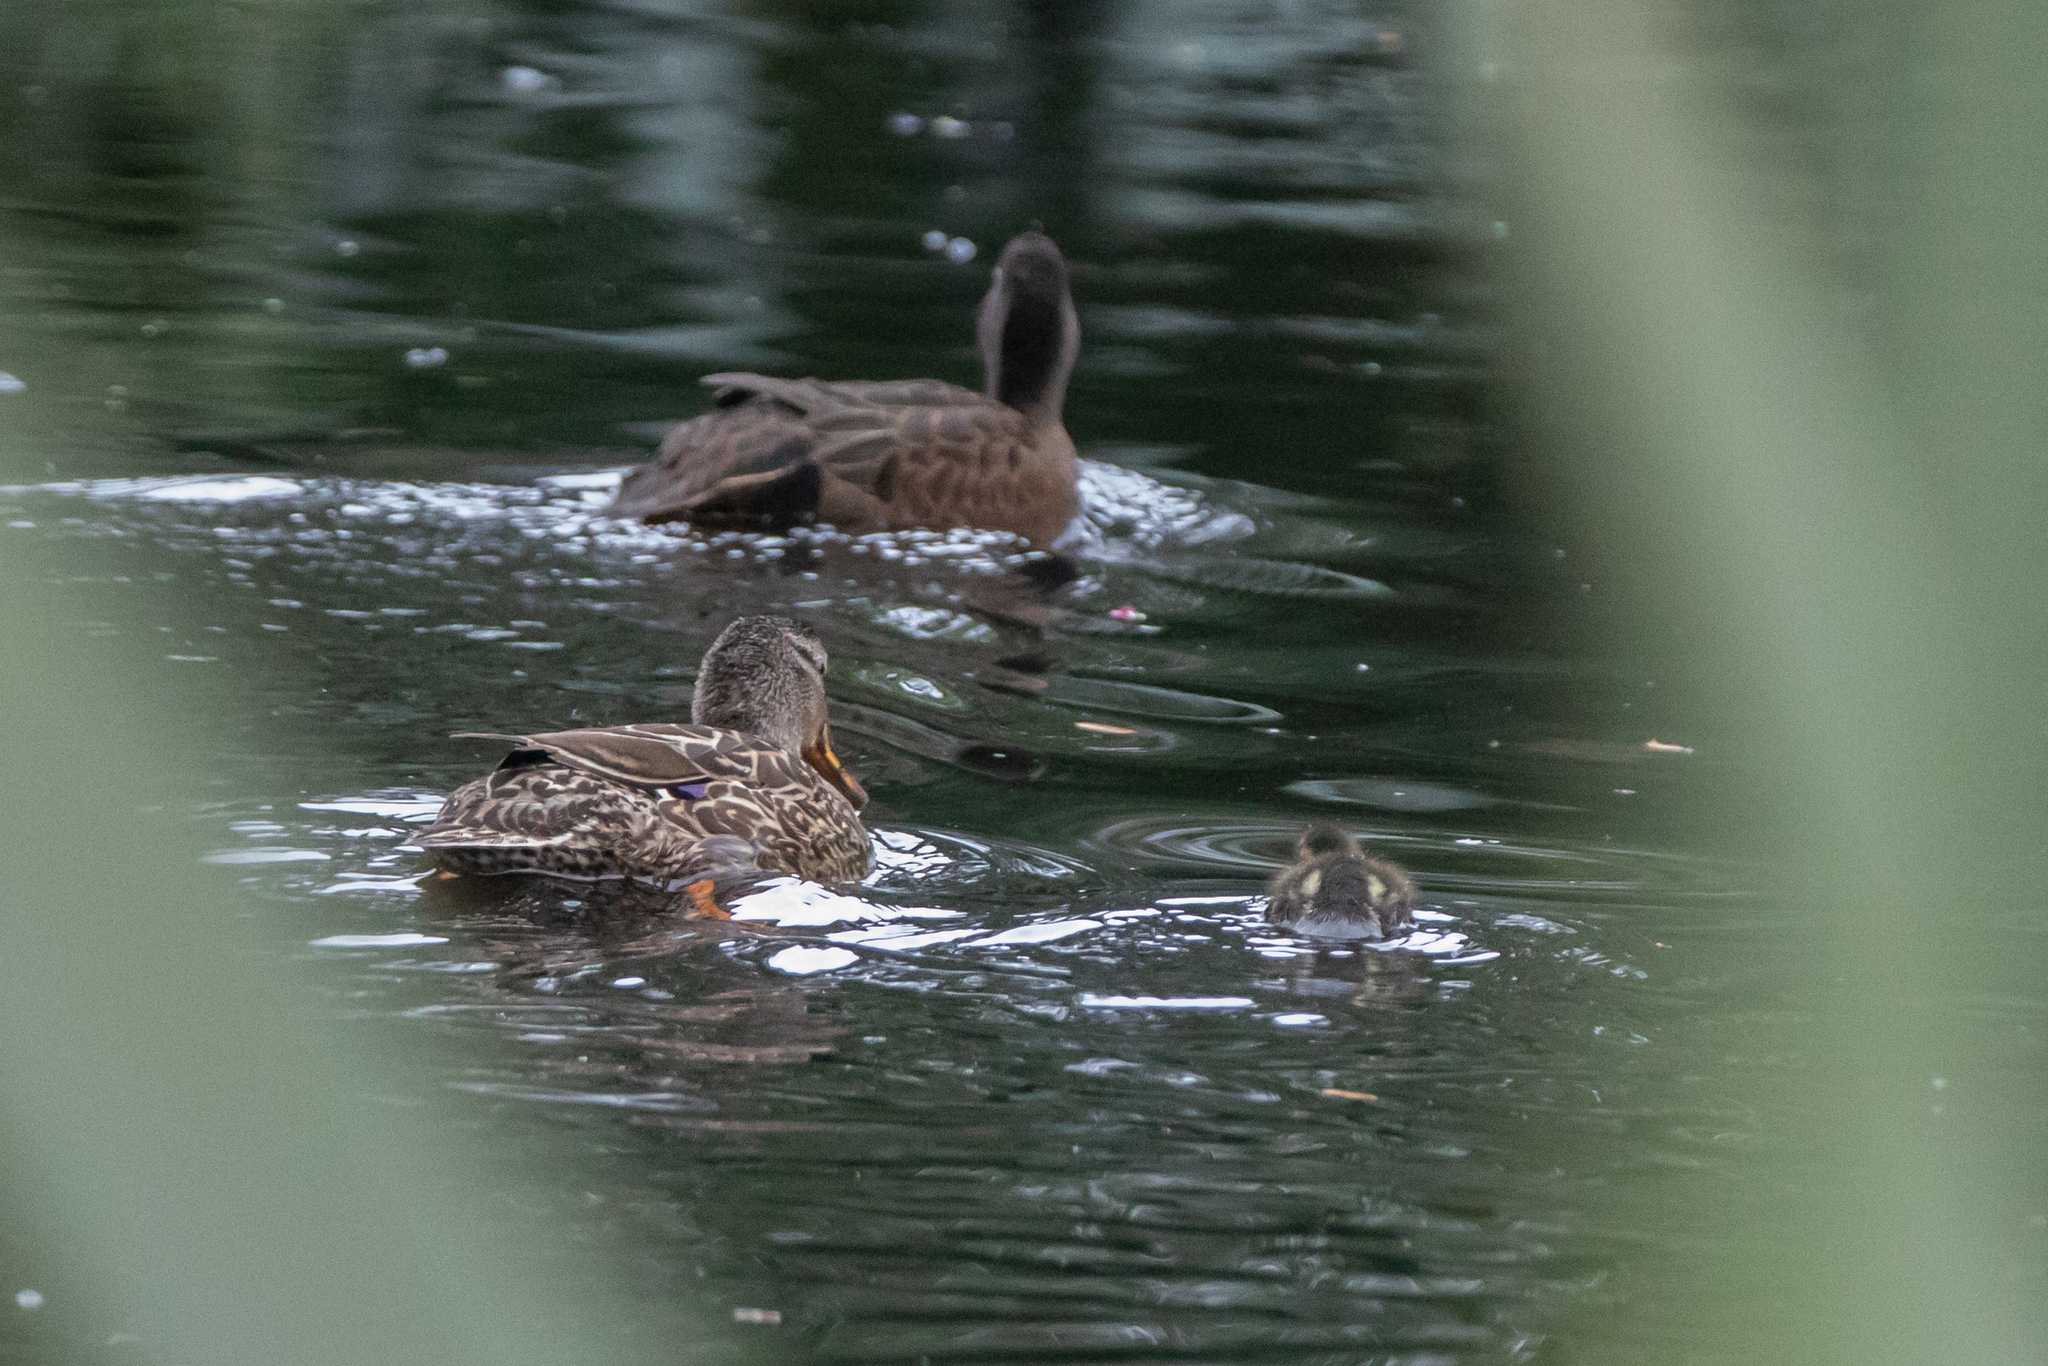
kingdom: Animalia
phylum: Chordata
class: Aves
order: Anseriformes
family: Anatidae
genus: Anas
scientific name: Anas chlorotis
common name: Brown teal
